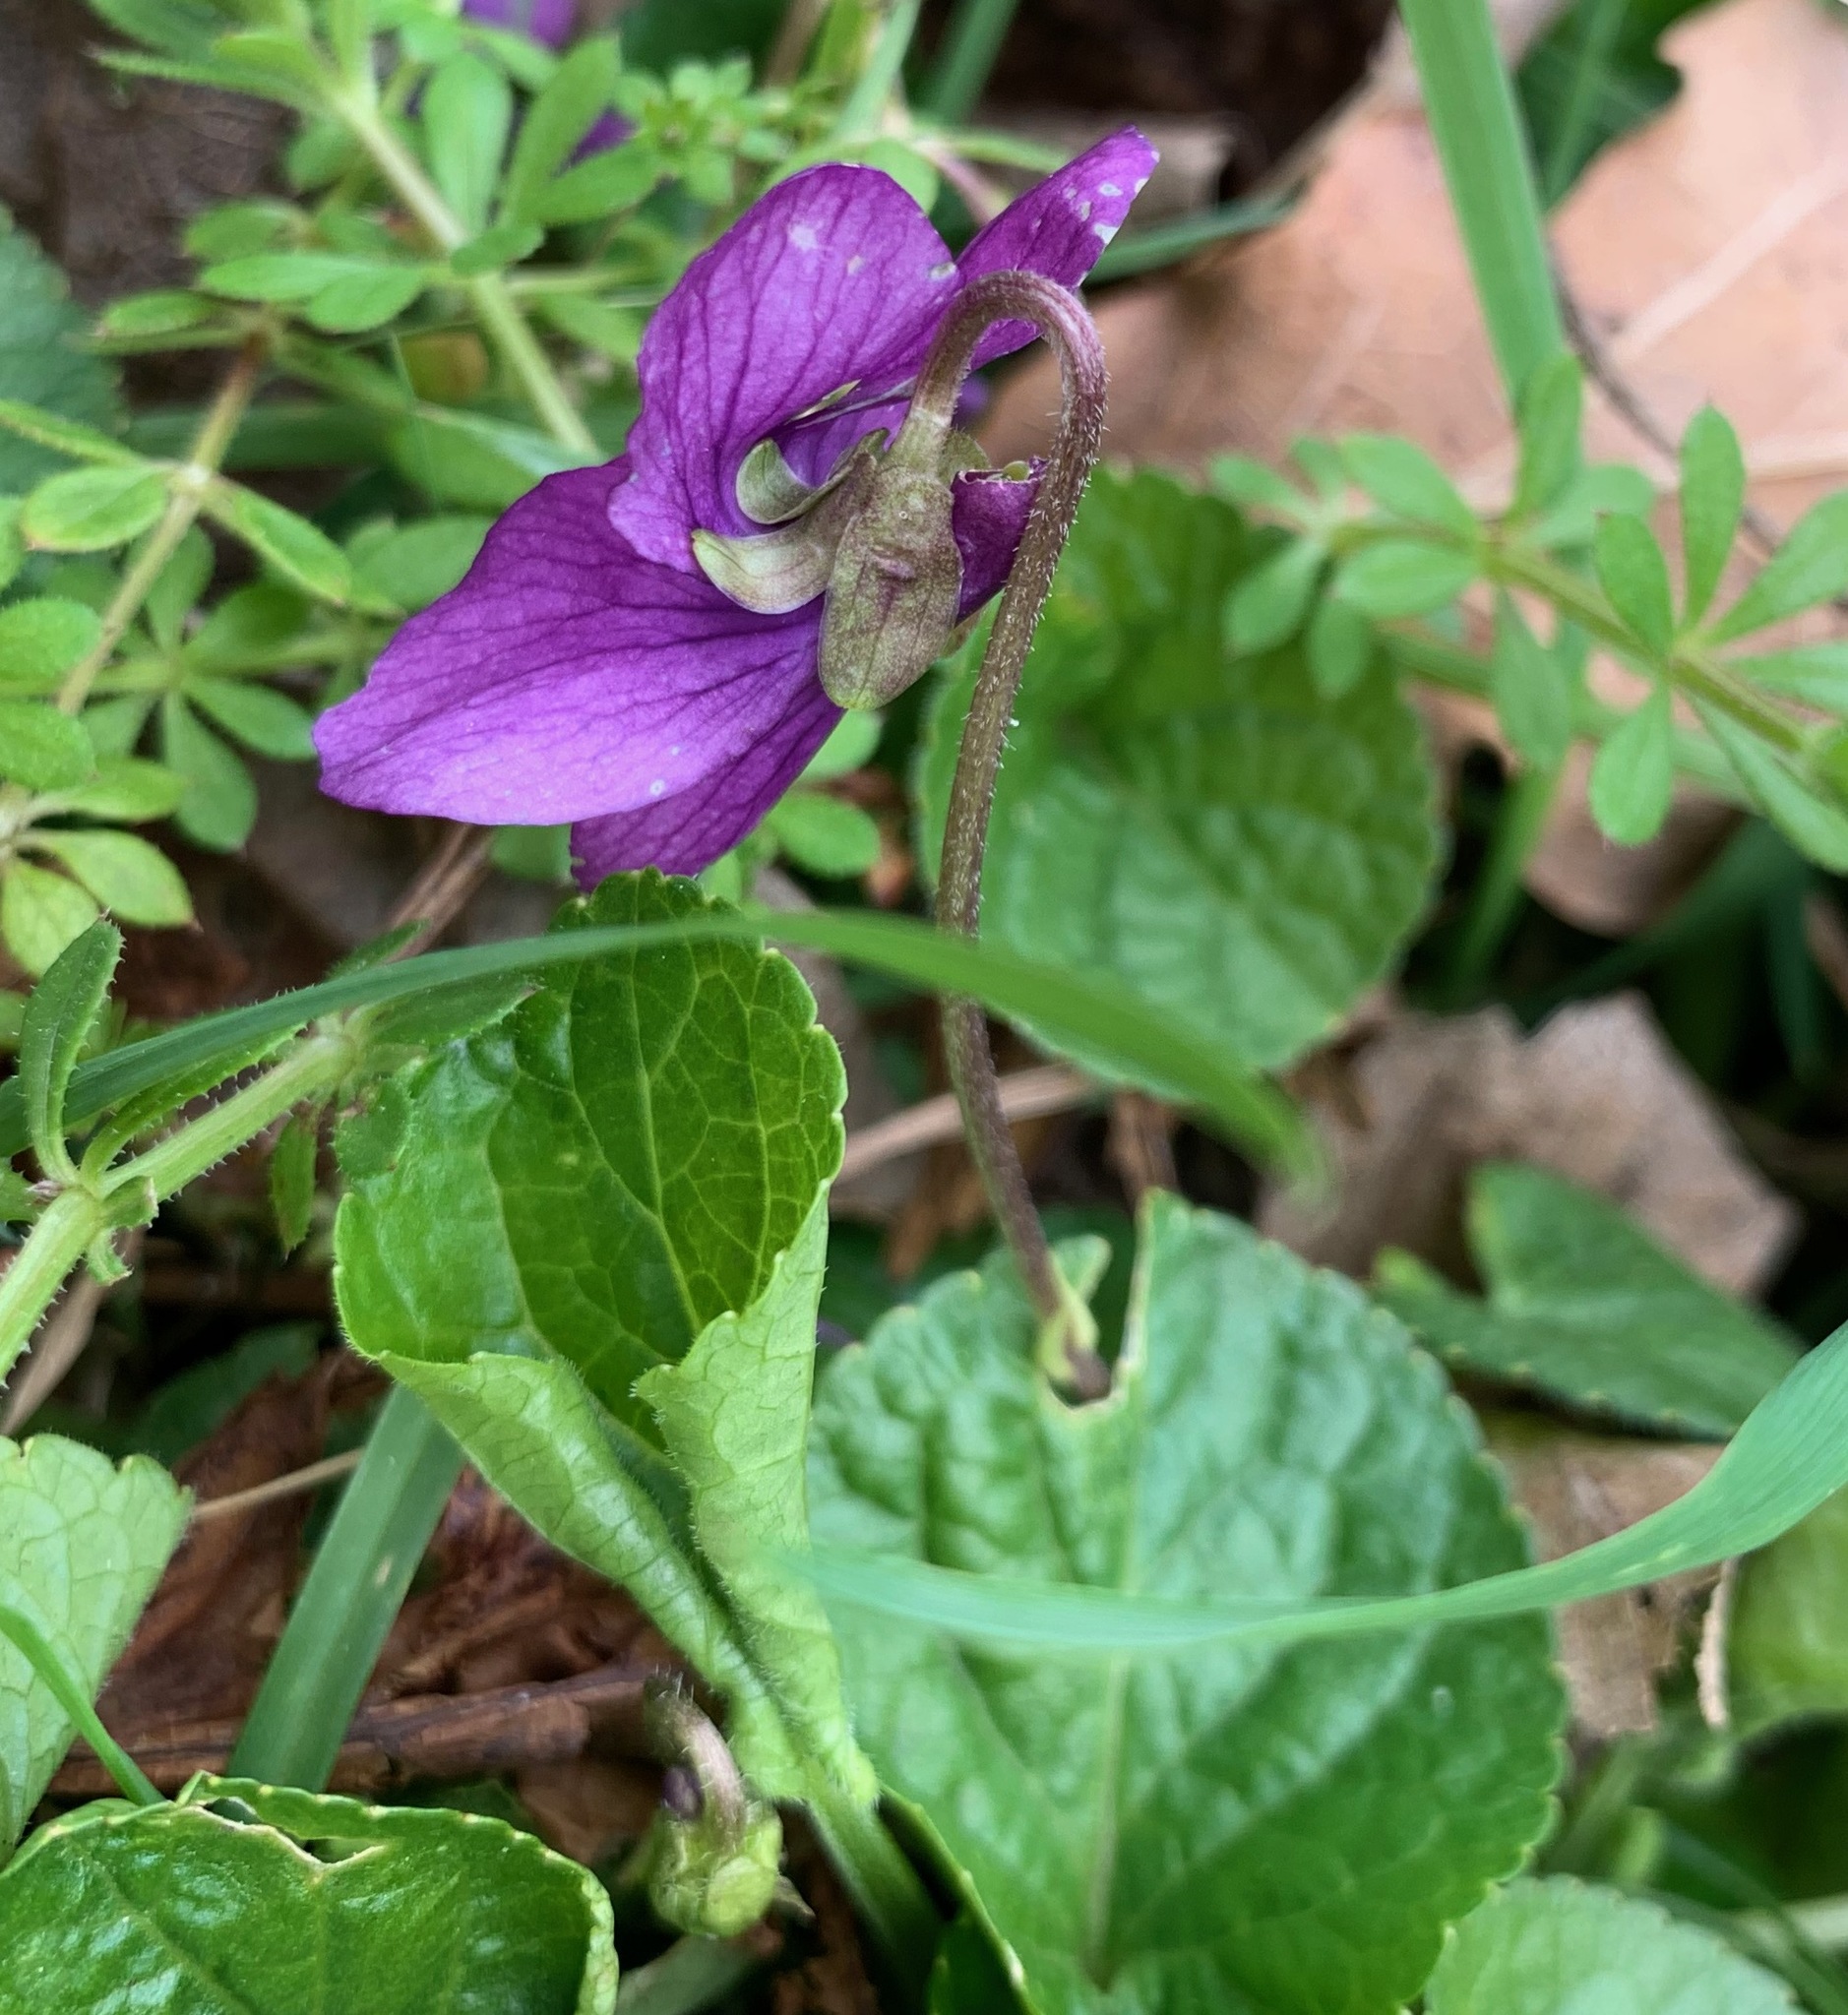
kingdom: Plantae
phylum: Tracheophyta
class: Magnoliopsida
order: Malpighiales
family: Violaceae
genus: Viola
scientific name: Viola odorata
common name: Sweet violet
